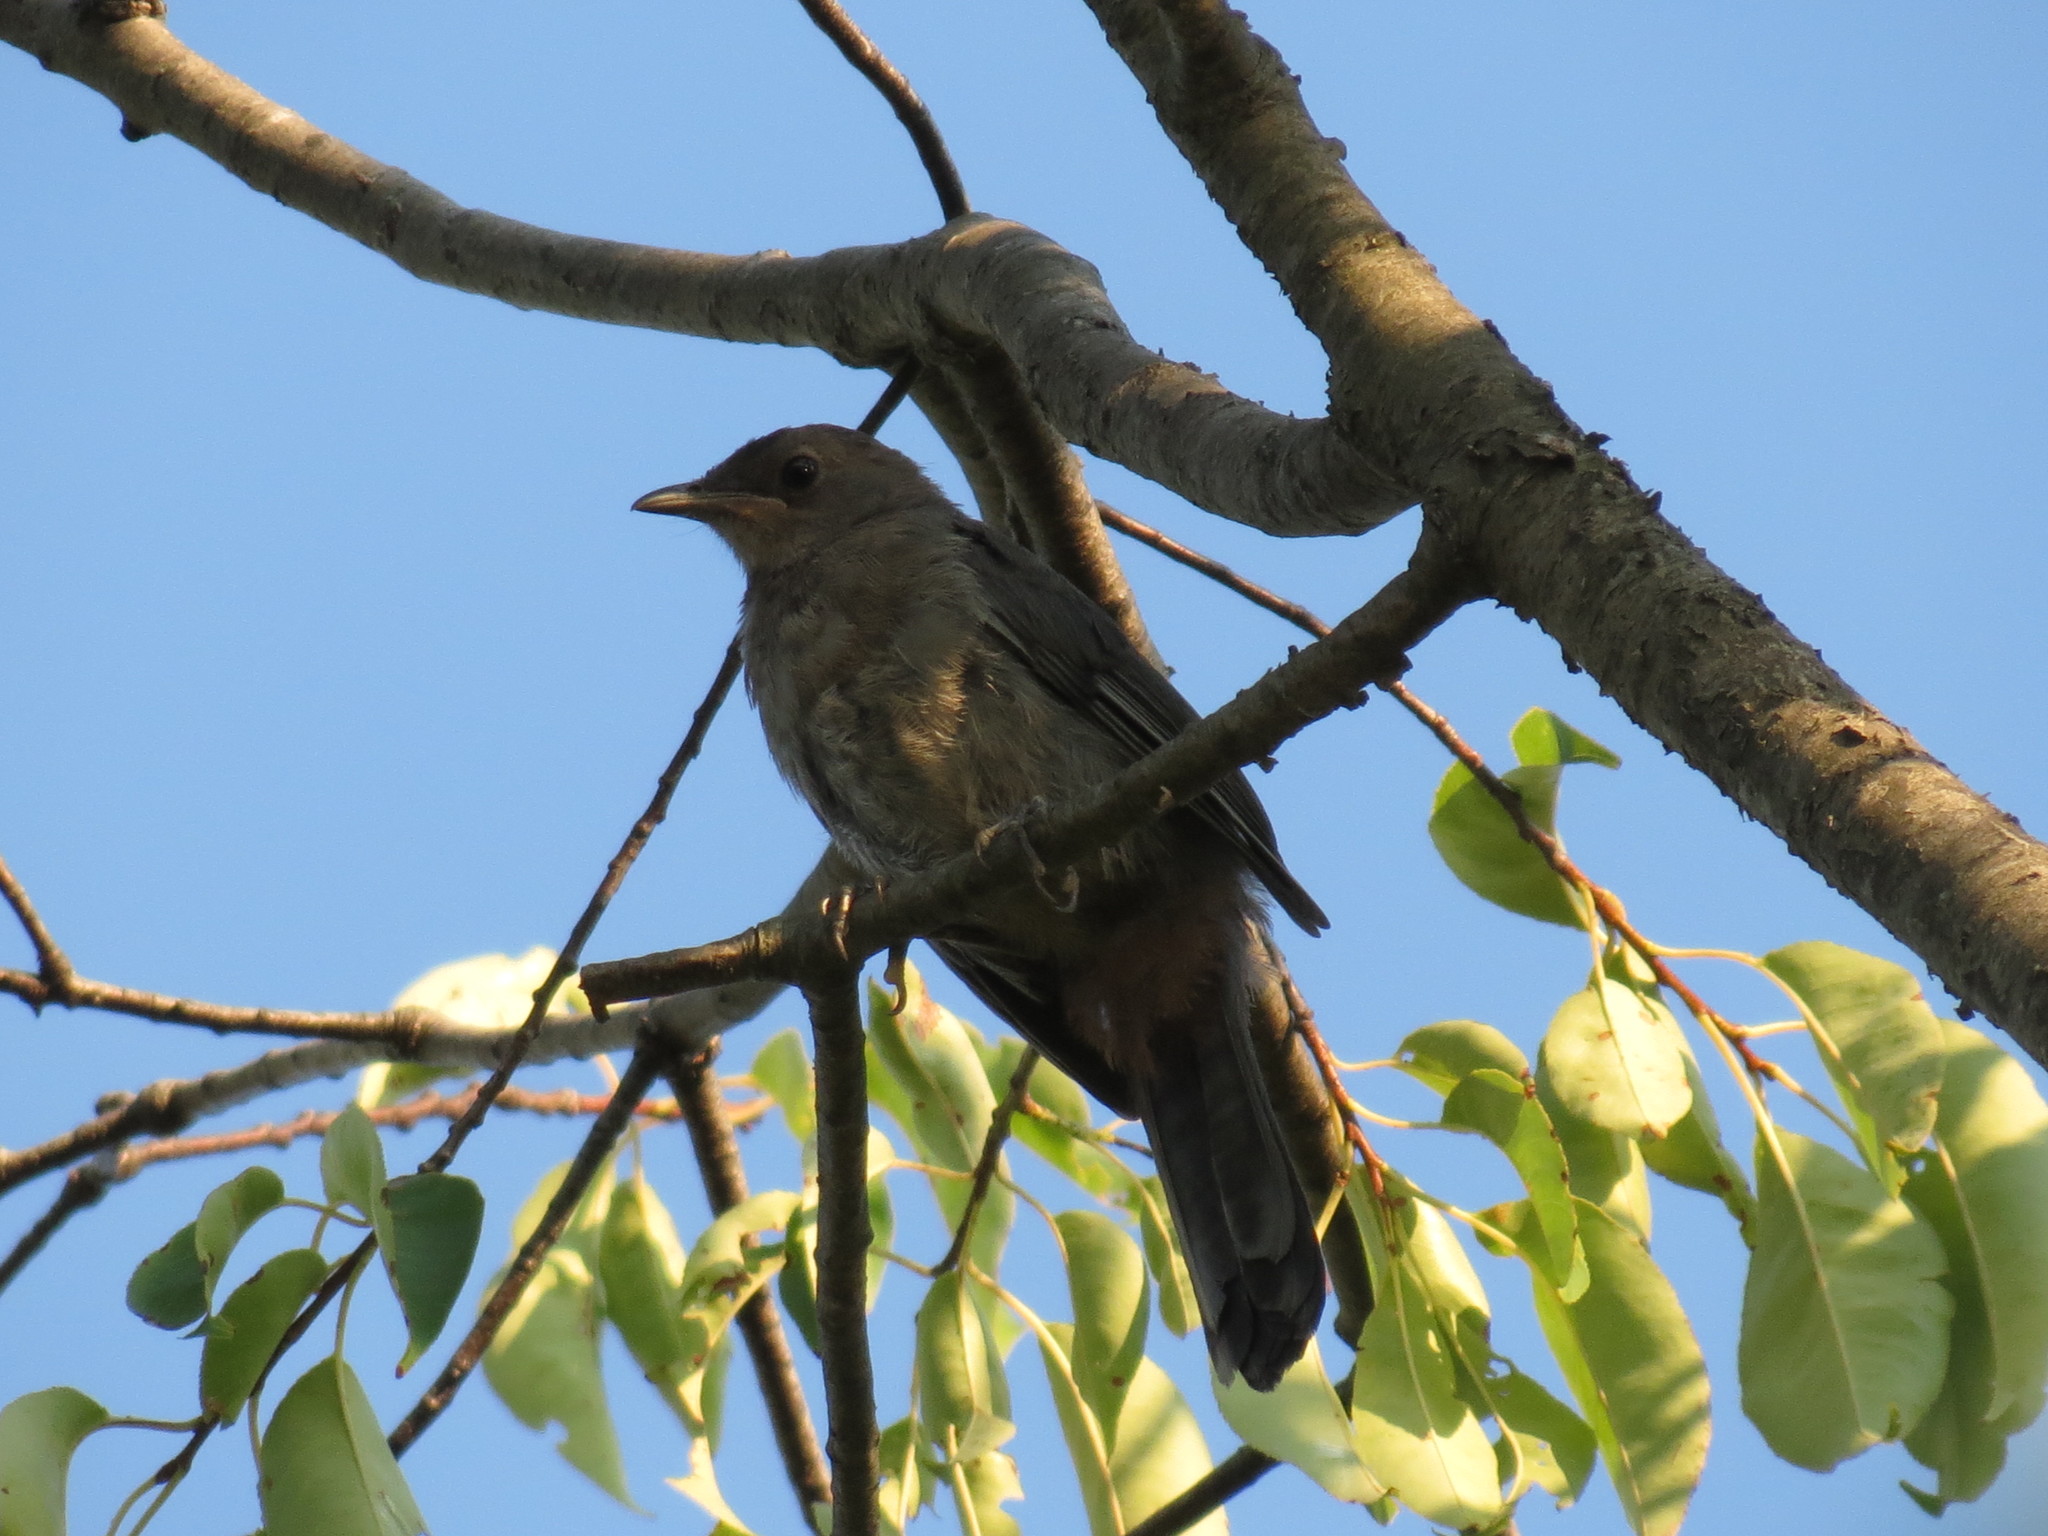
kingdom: Animalia
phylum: Chordata
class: Aves
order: Passeriformes
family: Mimidae
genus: Dumetella
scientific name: Dumetella carolinensis
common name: Gray catbird
